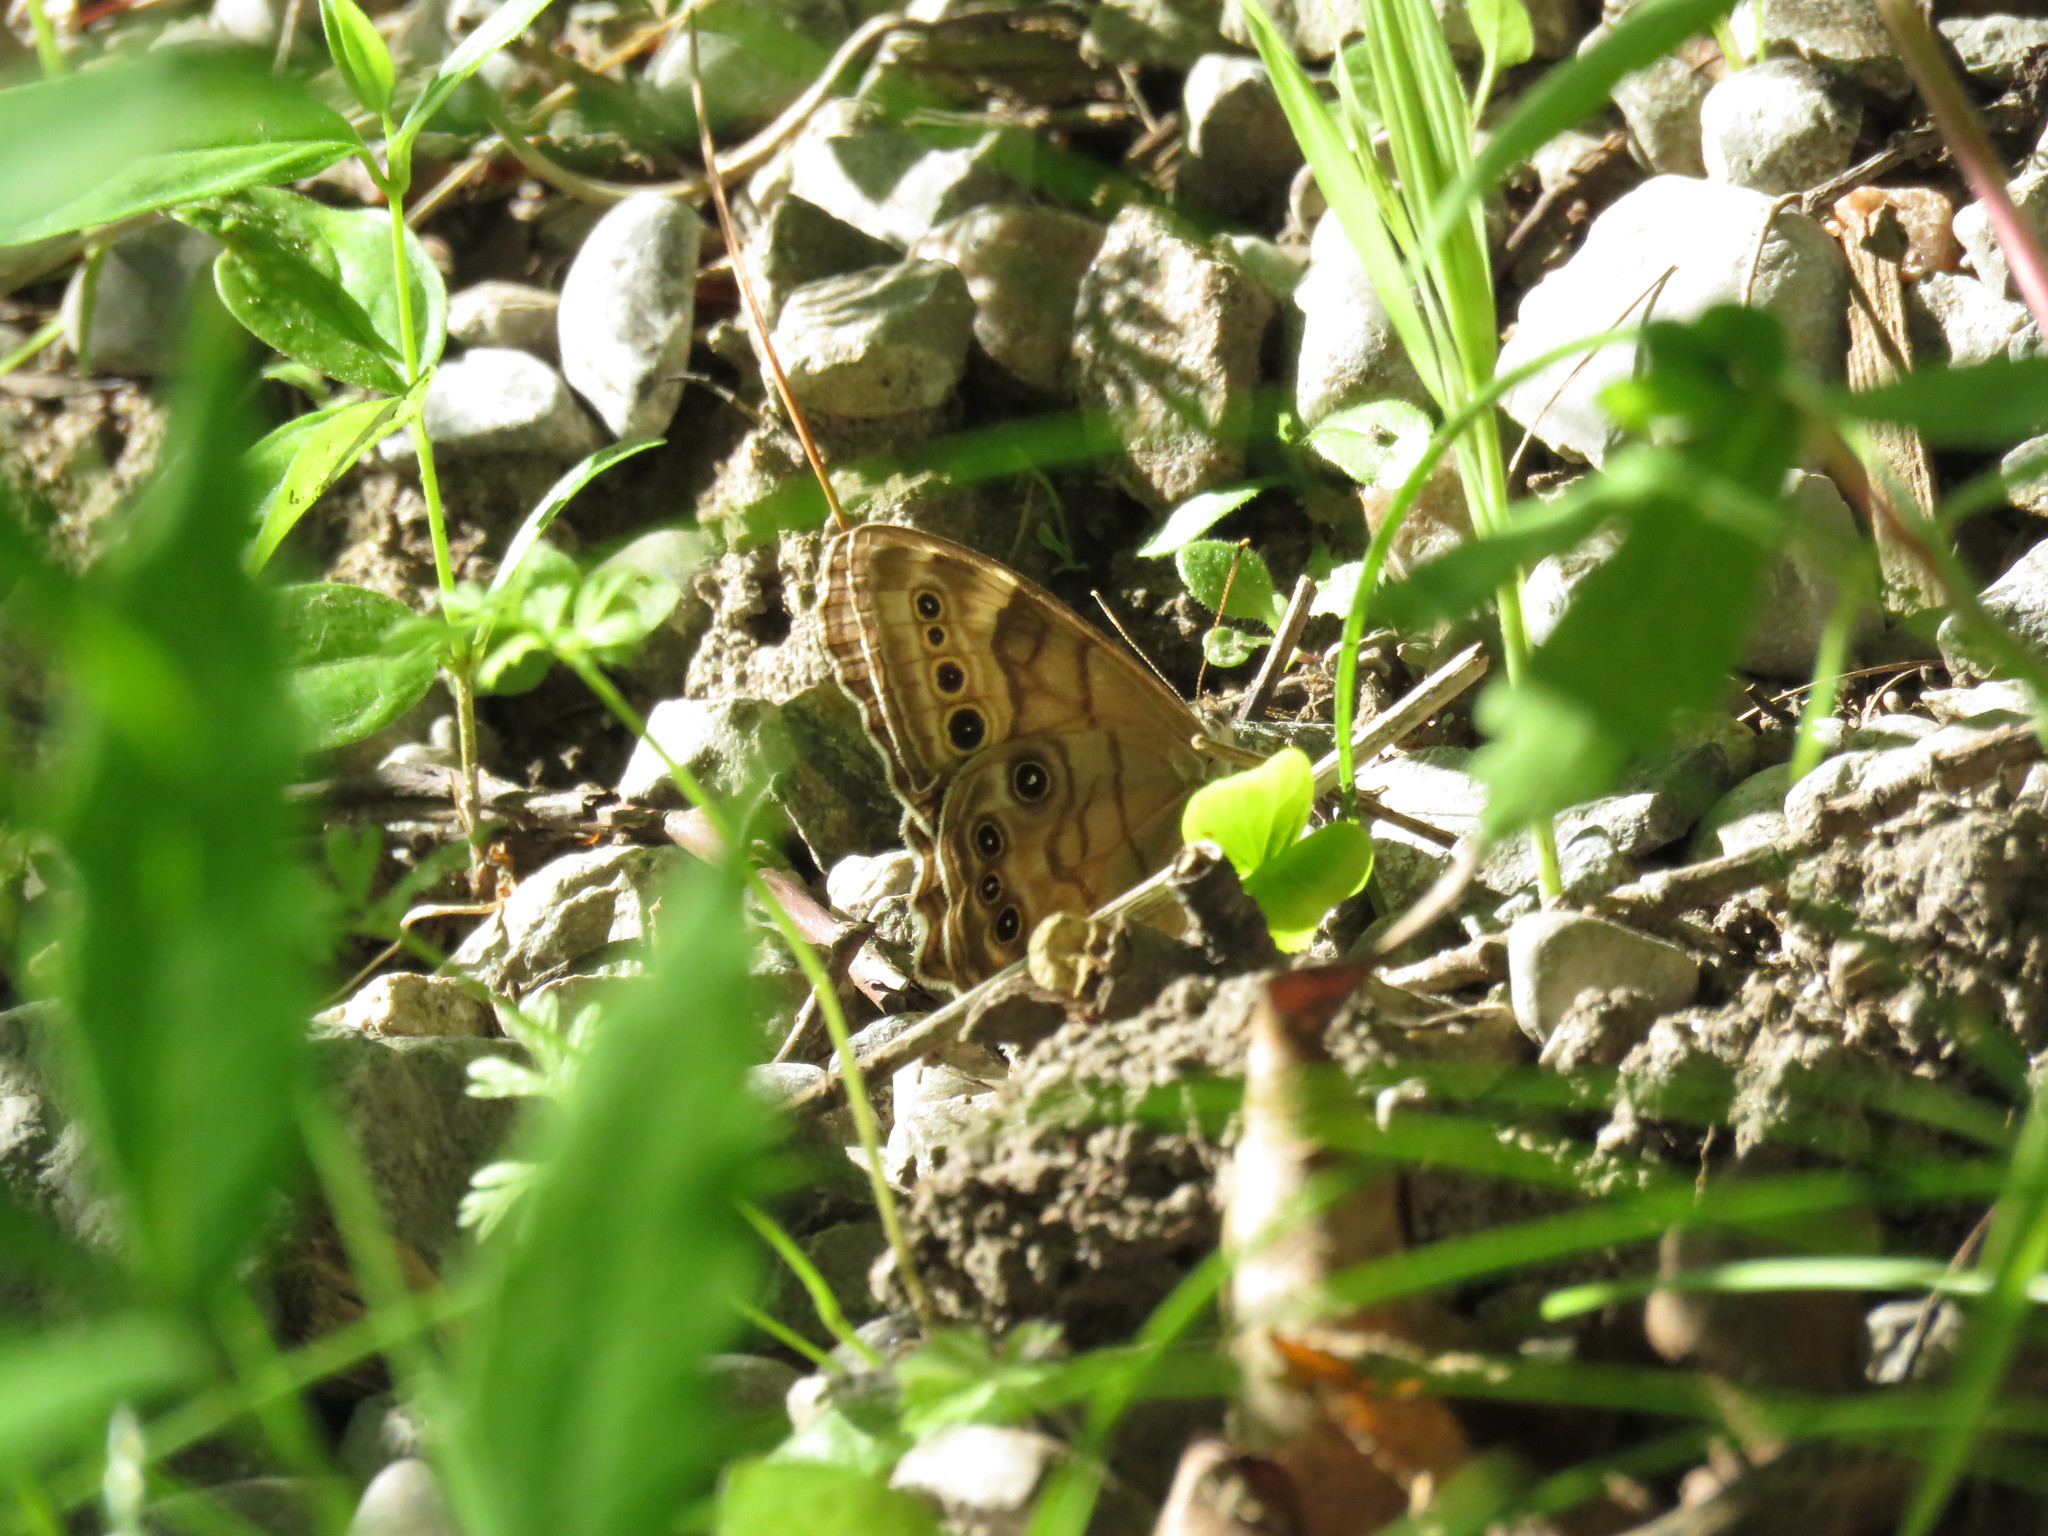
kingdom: Animalia
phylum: Arthropoda
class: Insecta
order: Lepidoptera
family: Nymphalidae
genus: Lethe
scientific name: Lethe anthedon
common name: Northern pearly-eye
